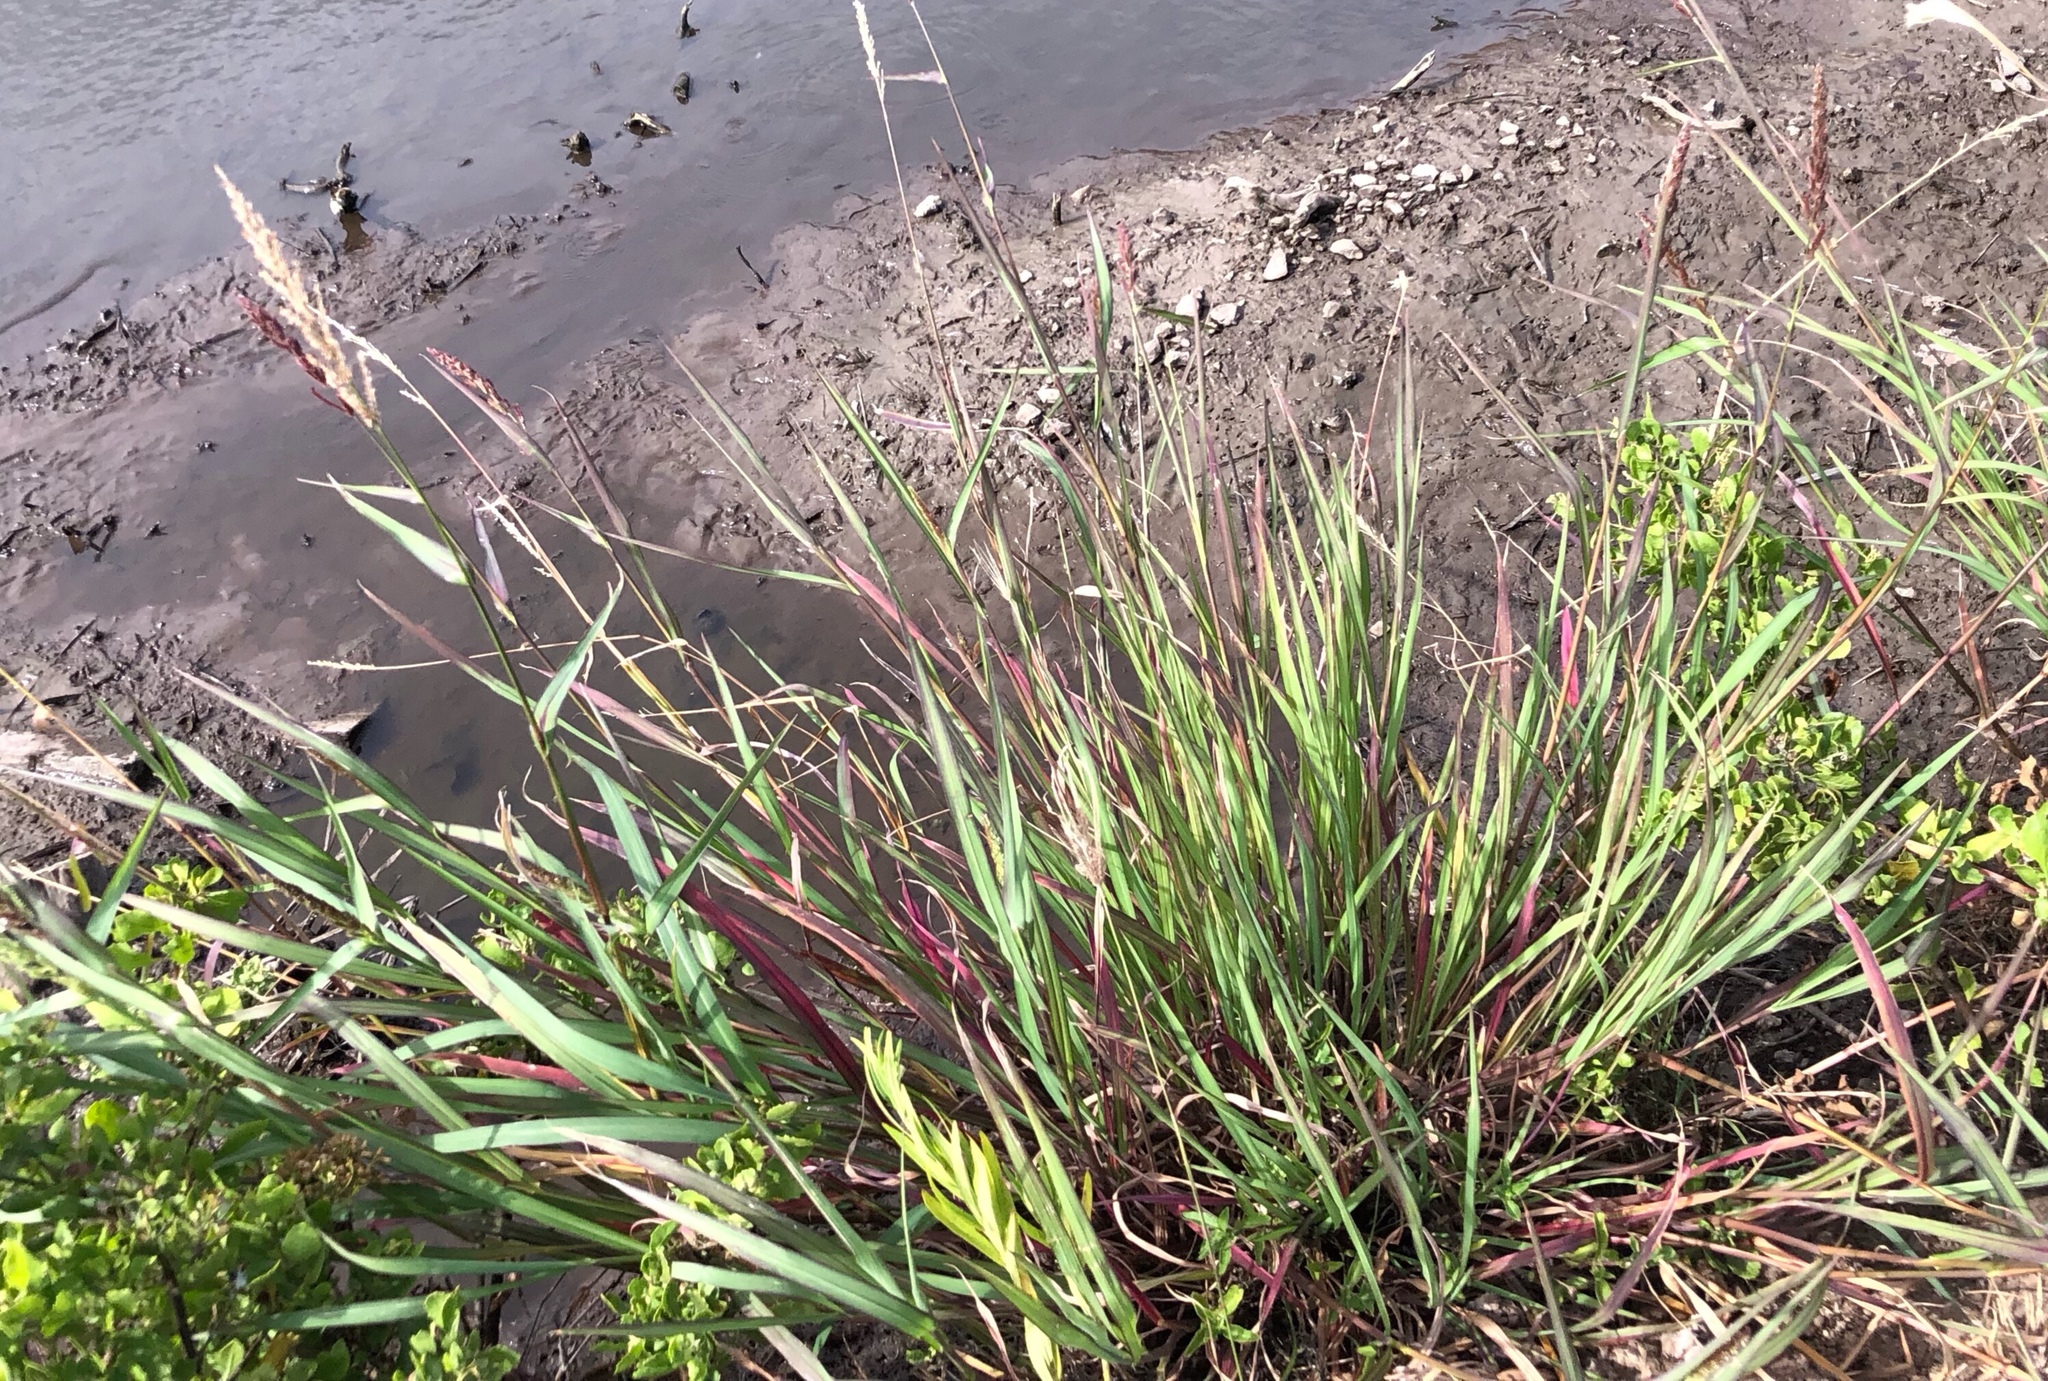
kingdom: Plantae
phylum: Tracheophyta
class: Liliopsida
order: Poales
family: Poaceae
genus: Echinochloa
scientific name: Echinochloa crus-galli
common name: Cockspur
